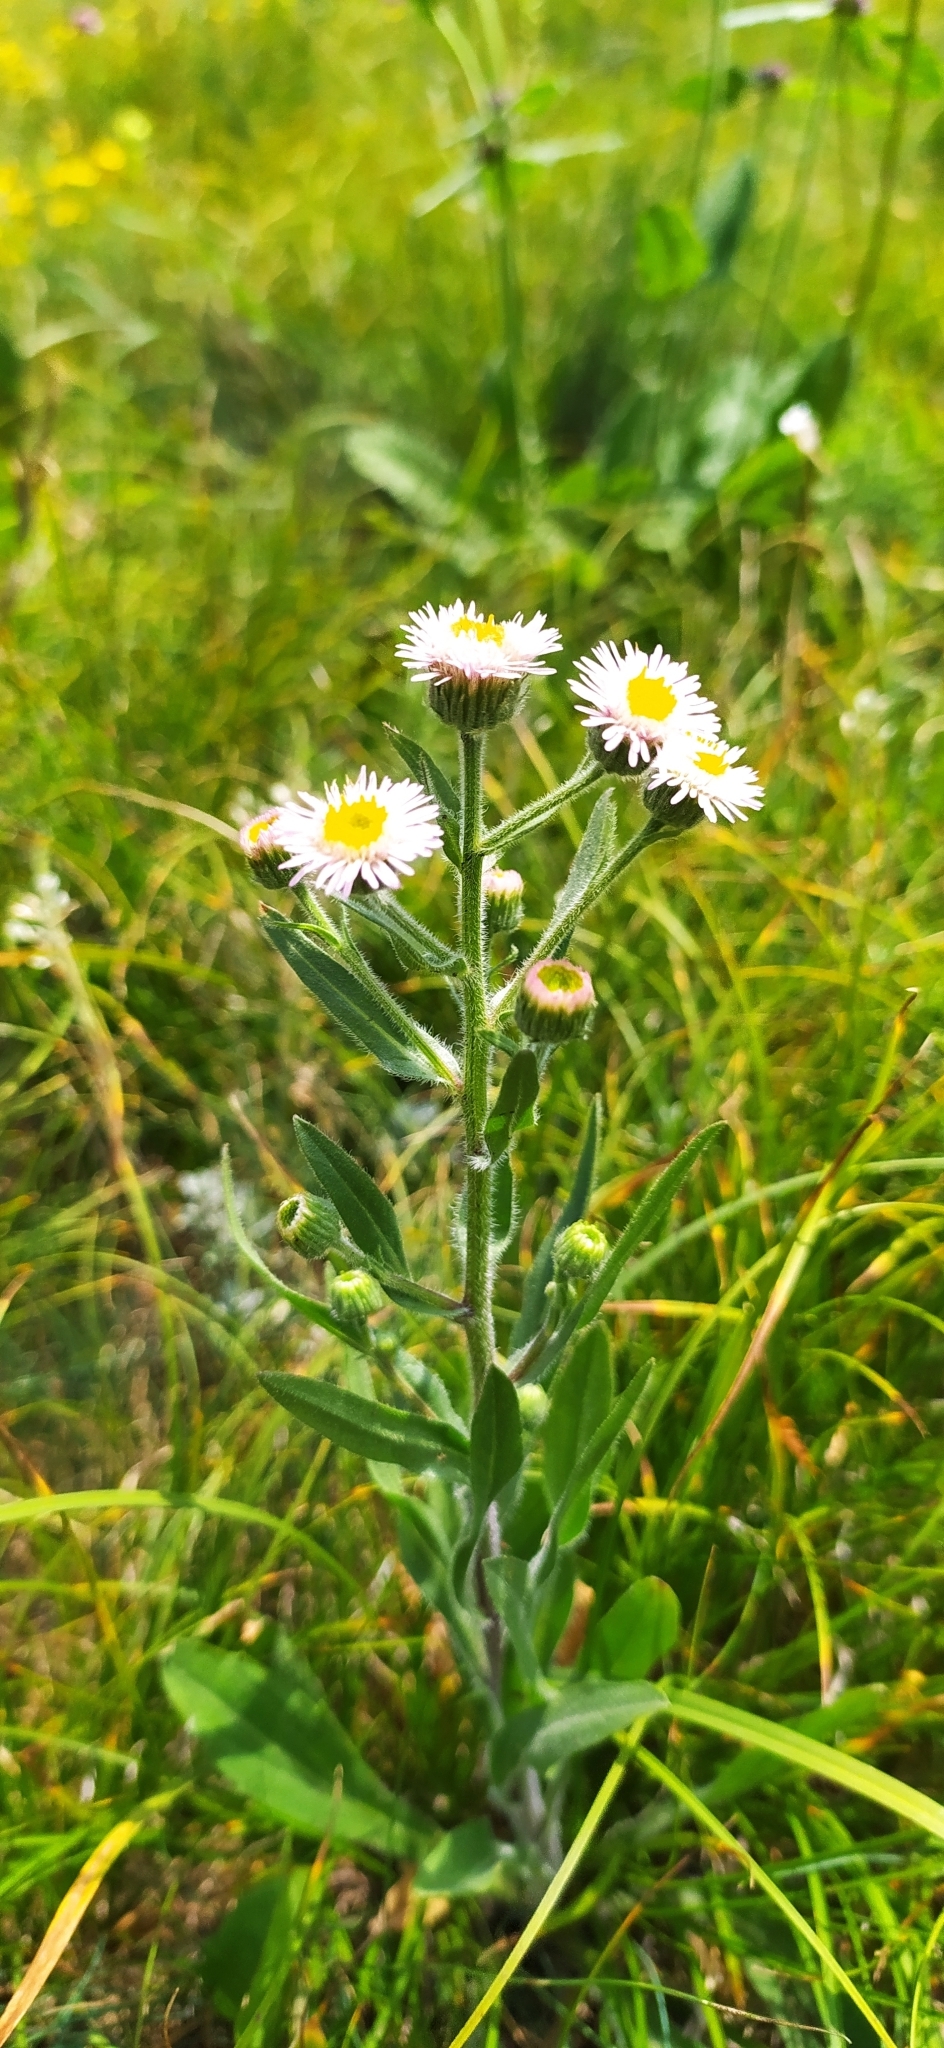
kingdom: Plantae
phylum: Tracheophyta
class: Magnoliopsida
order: Asterales
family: Asteraceae
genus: Erigeron
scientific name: Erigeron acris
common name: Blue fleabane
